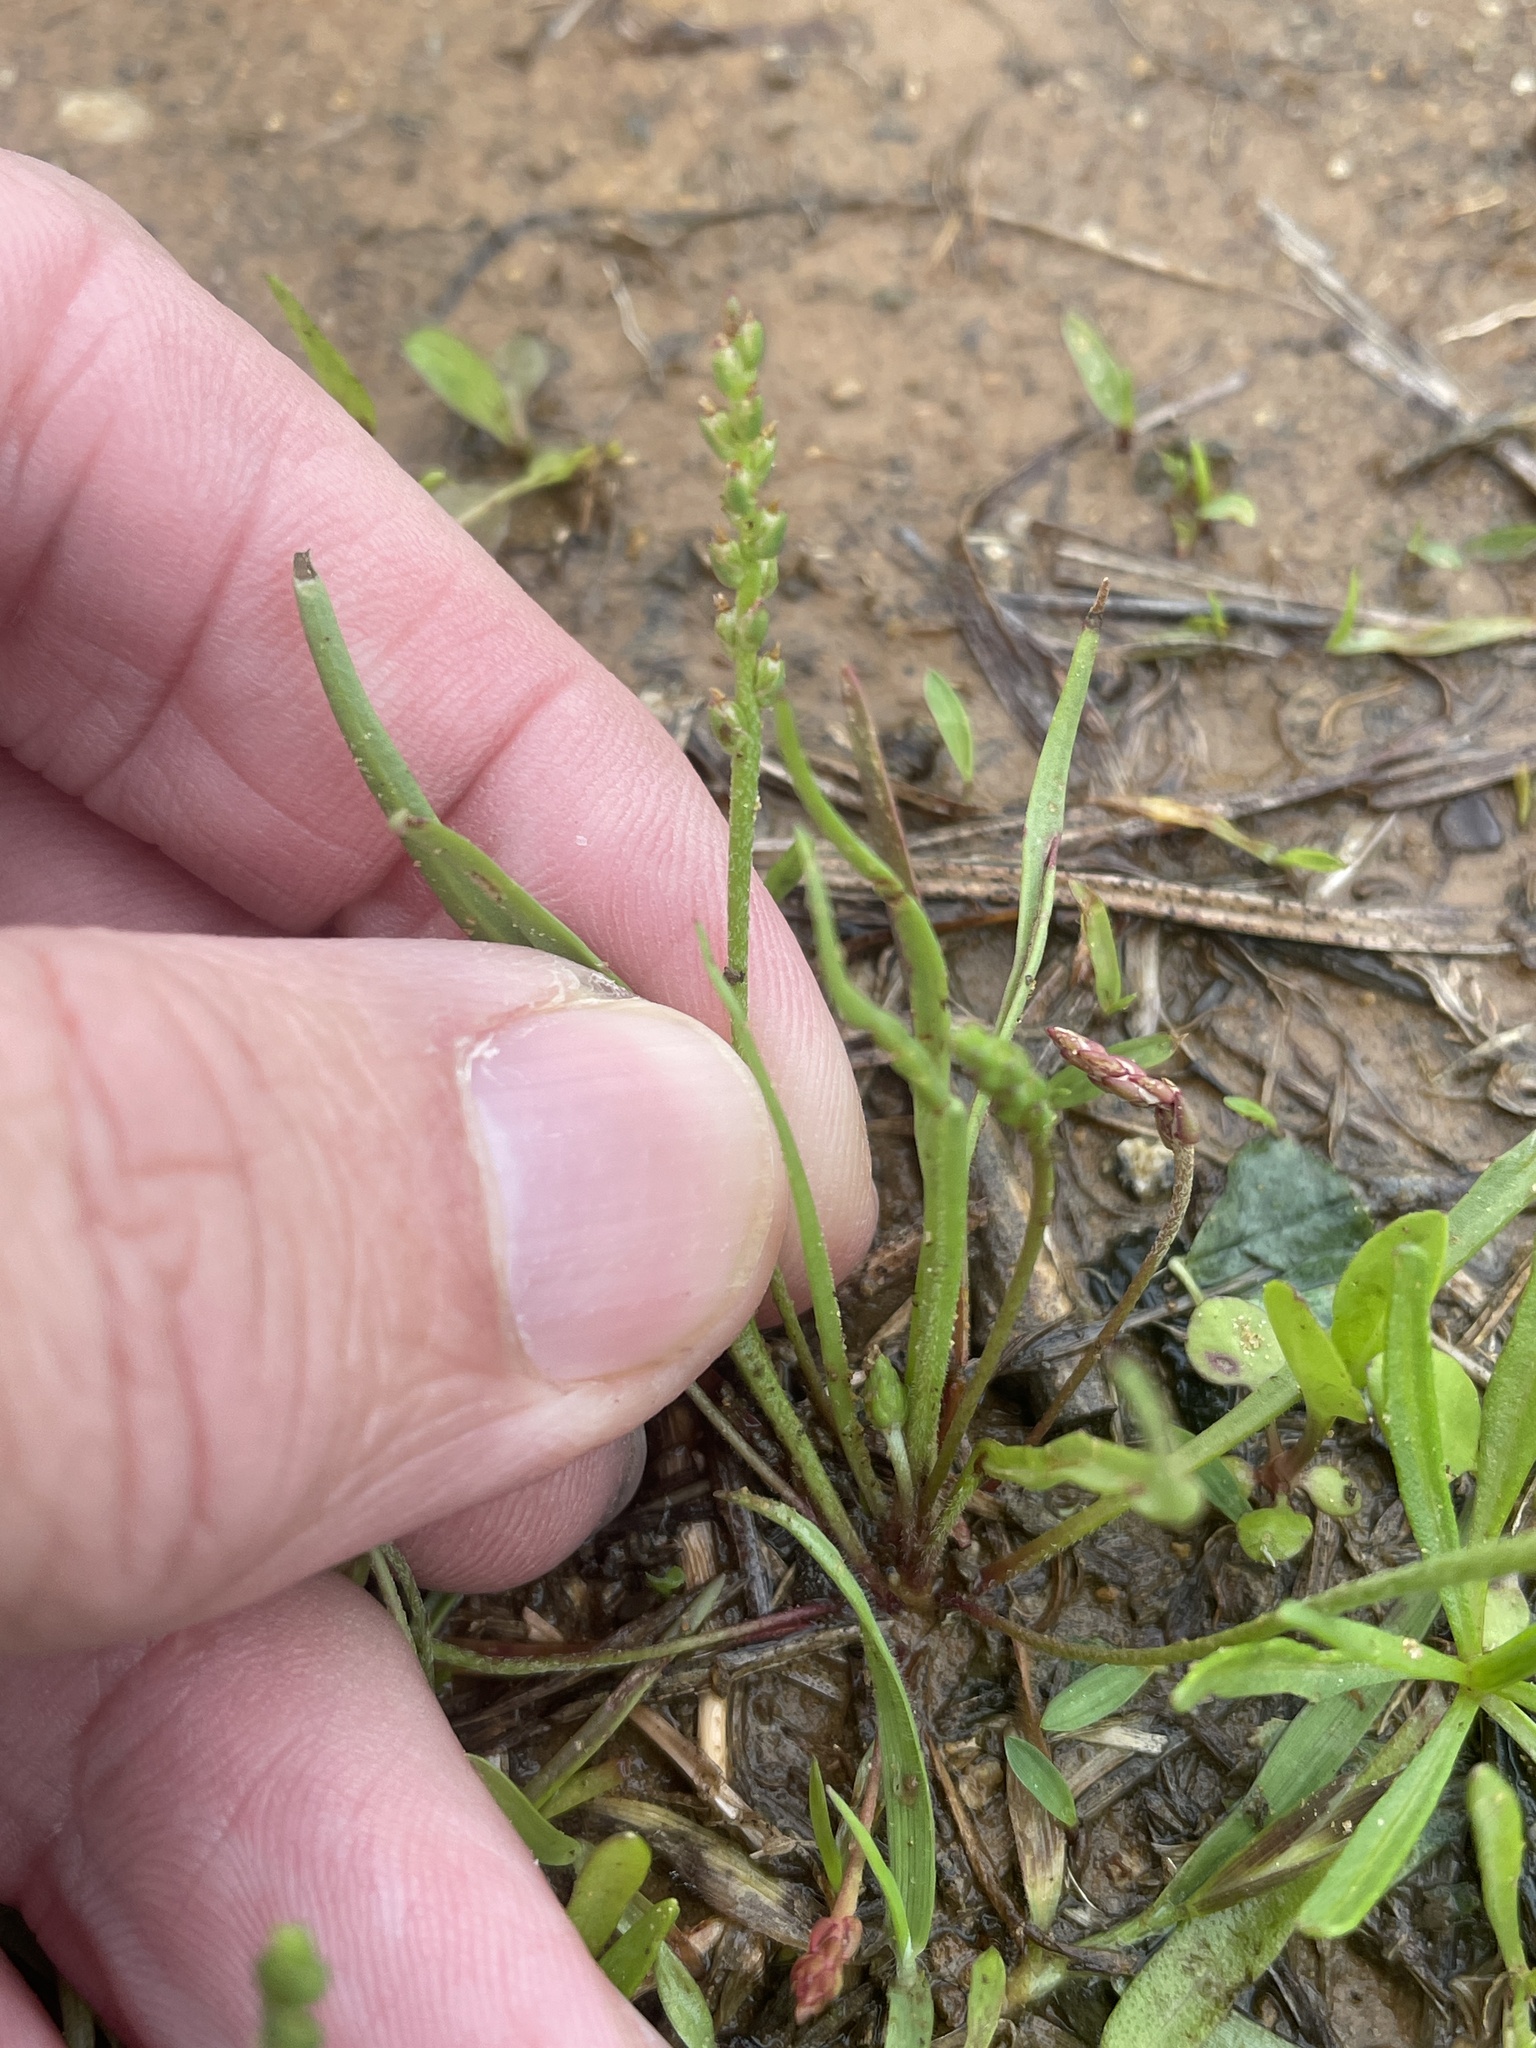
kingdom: Plantae
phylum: Tracheophyta
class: Magnoliopsida
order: Lamiales
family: Plantaginaceae
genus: Plantago
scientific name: Plantago heterophylla
